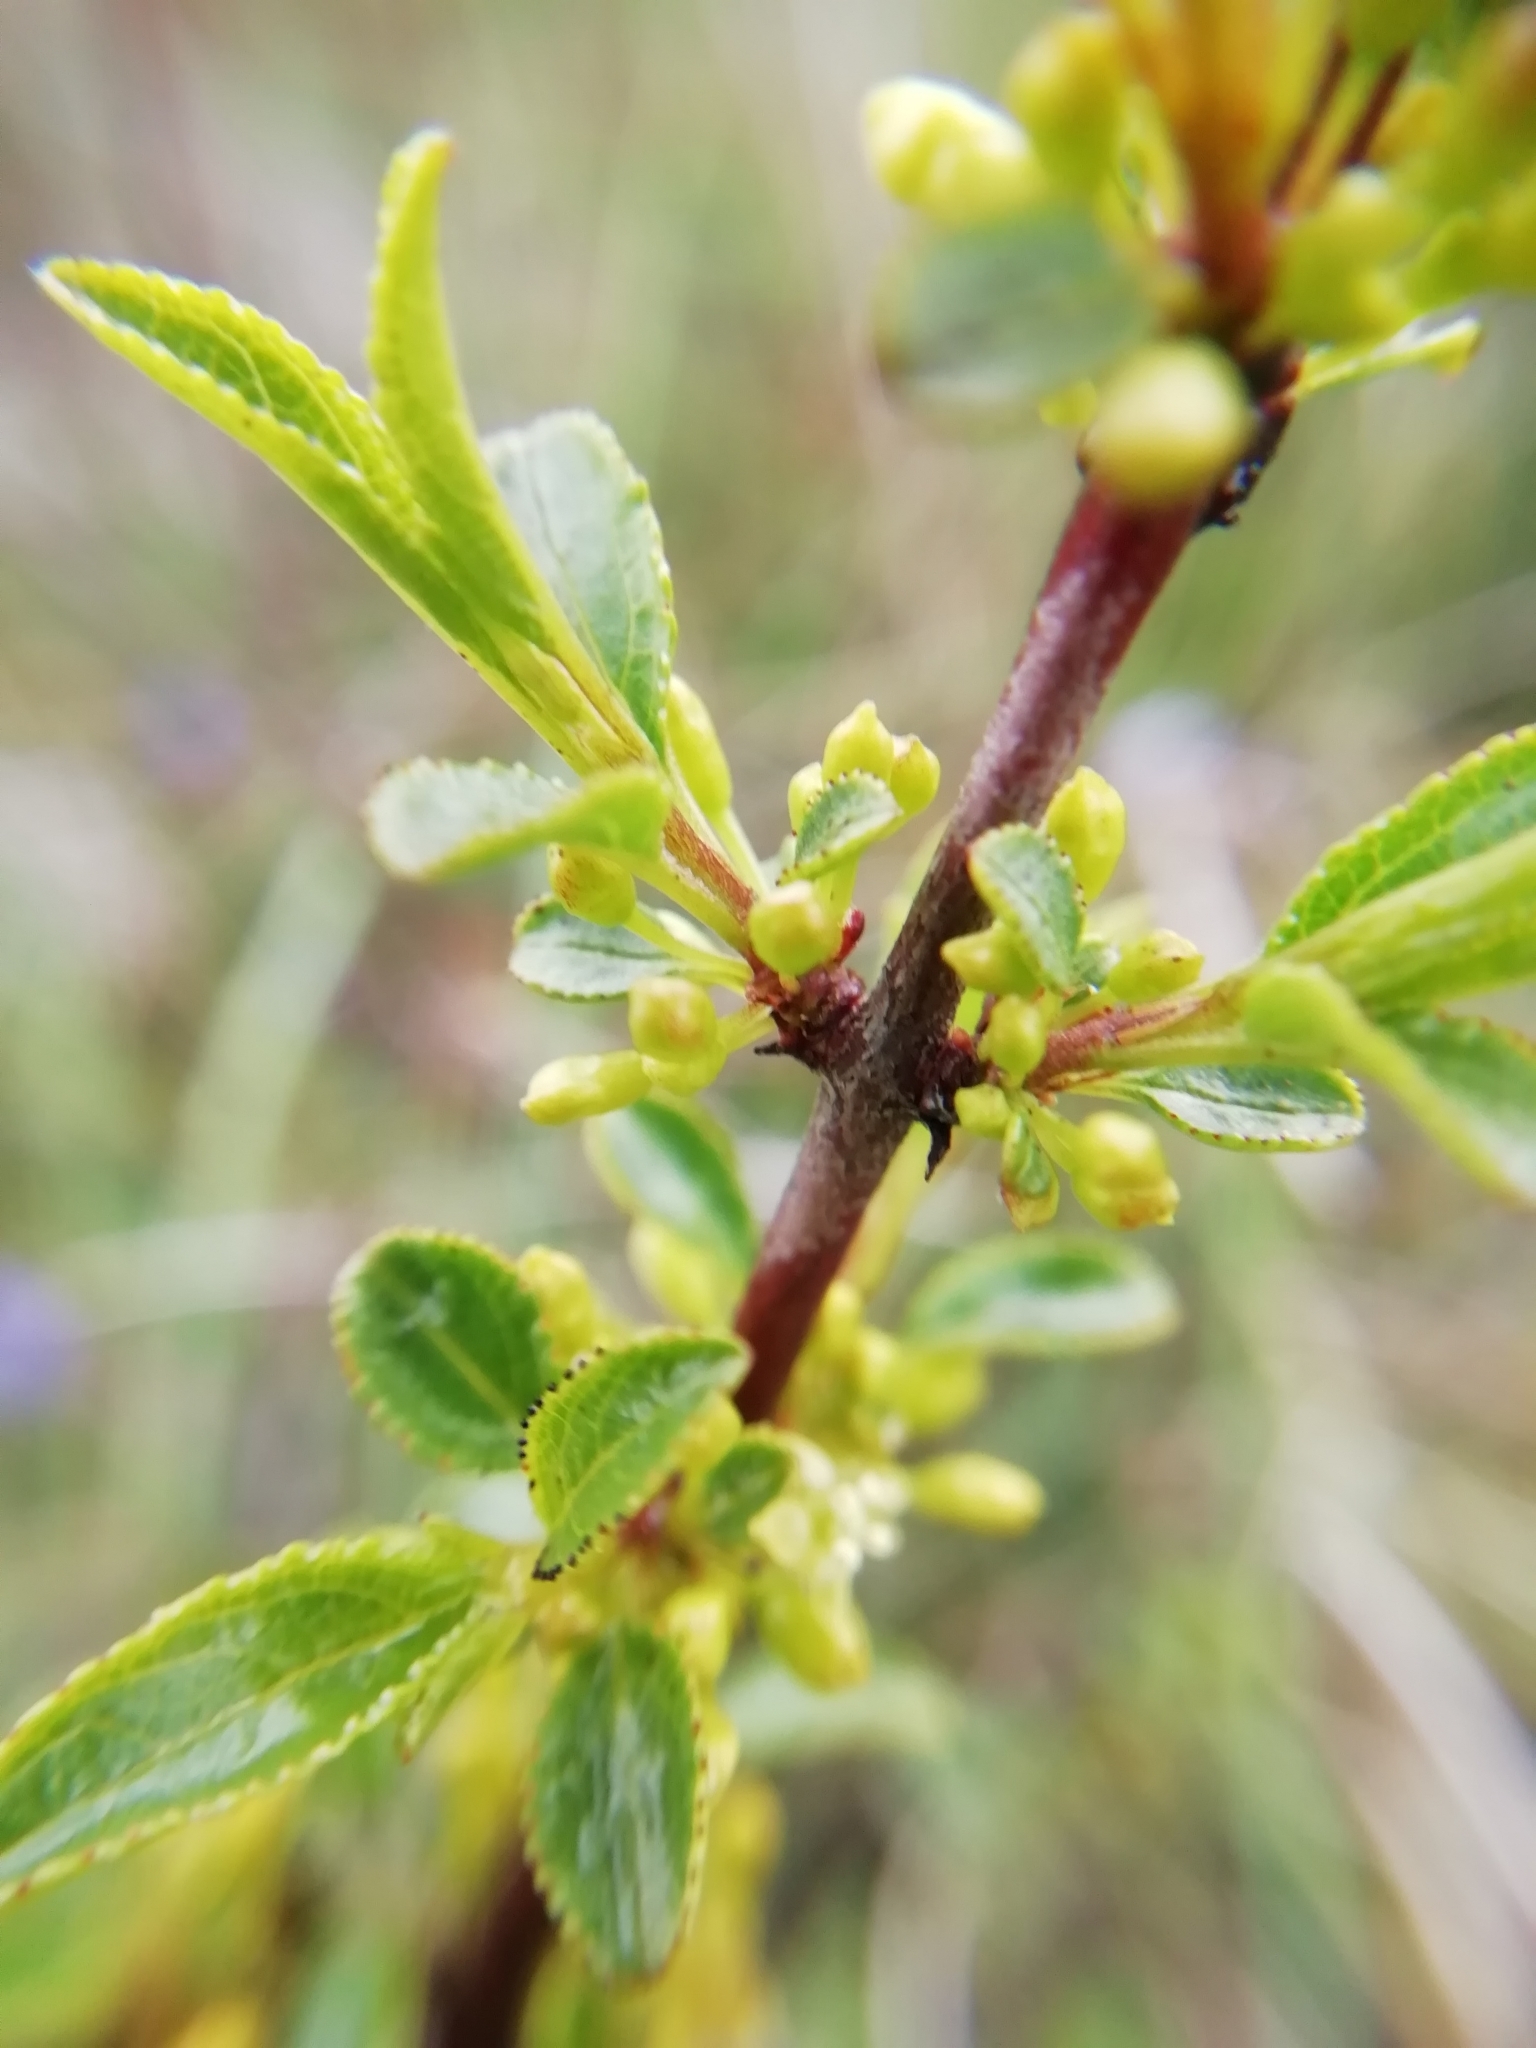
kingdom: Plantae
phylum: Tracheophyta
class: Magnoliopsida
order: Rosales
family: Rhamnaceae
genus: Rhamnus
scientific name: Rhamnus saxatilis
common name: Rock buckthorn
